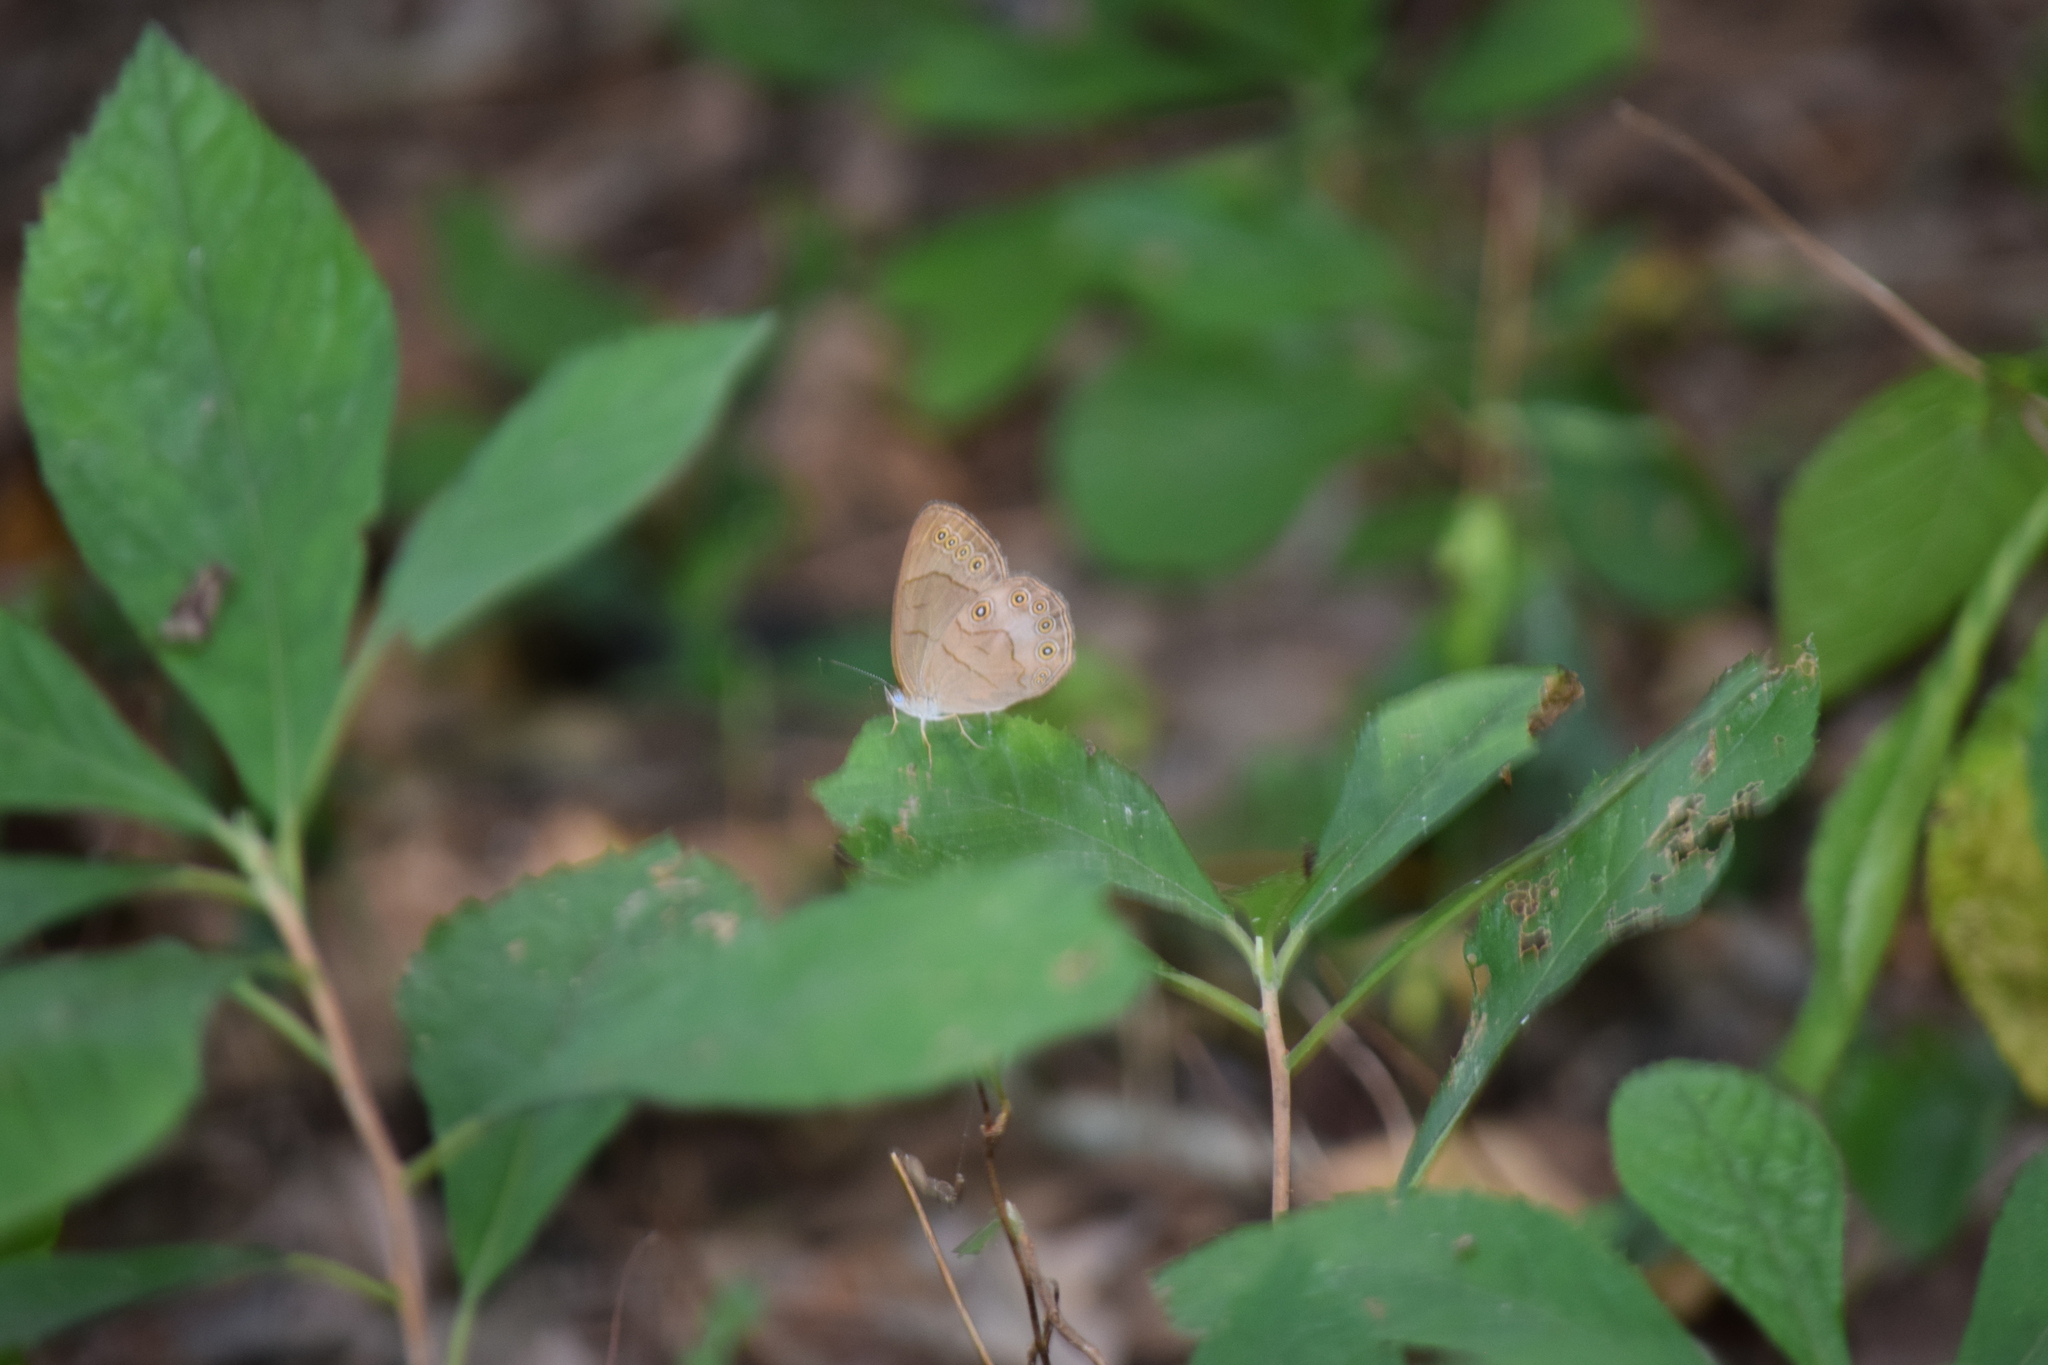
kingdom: Animalia
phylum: Arthropoda
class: Insecta
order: Lepidoptera
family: Nymphalidae
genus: Lethe
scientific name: Lethe eurydice
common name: Eyed brown
